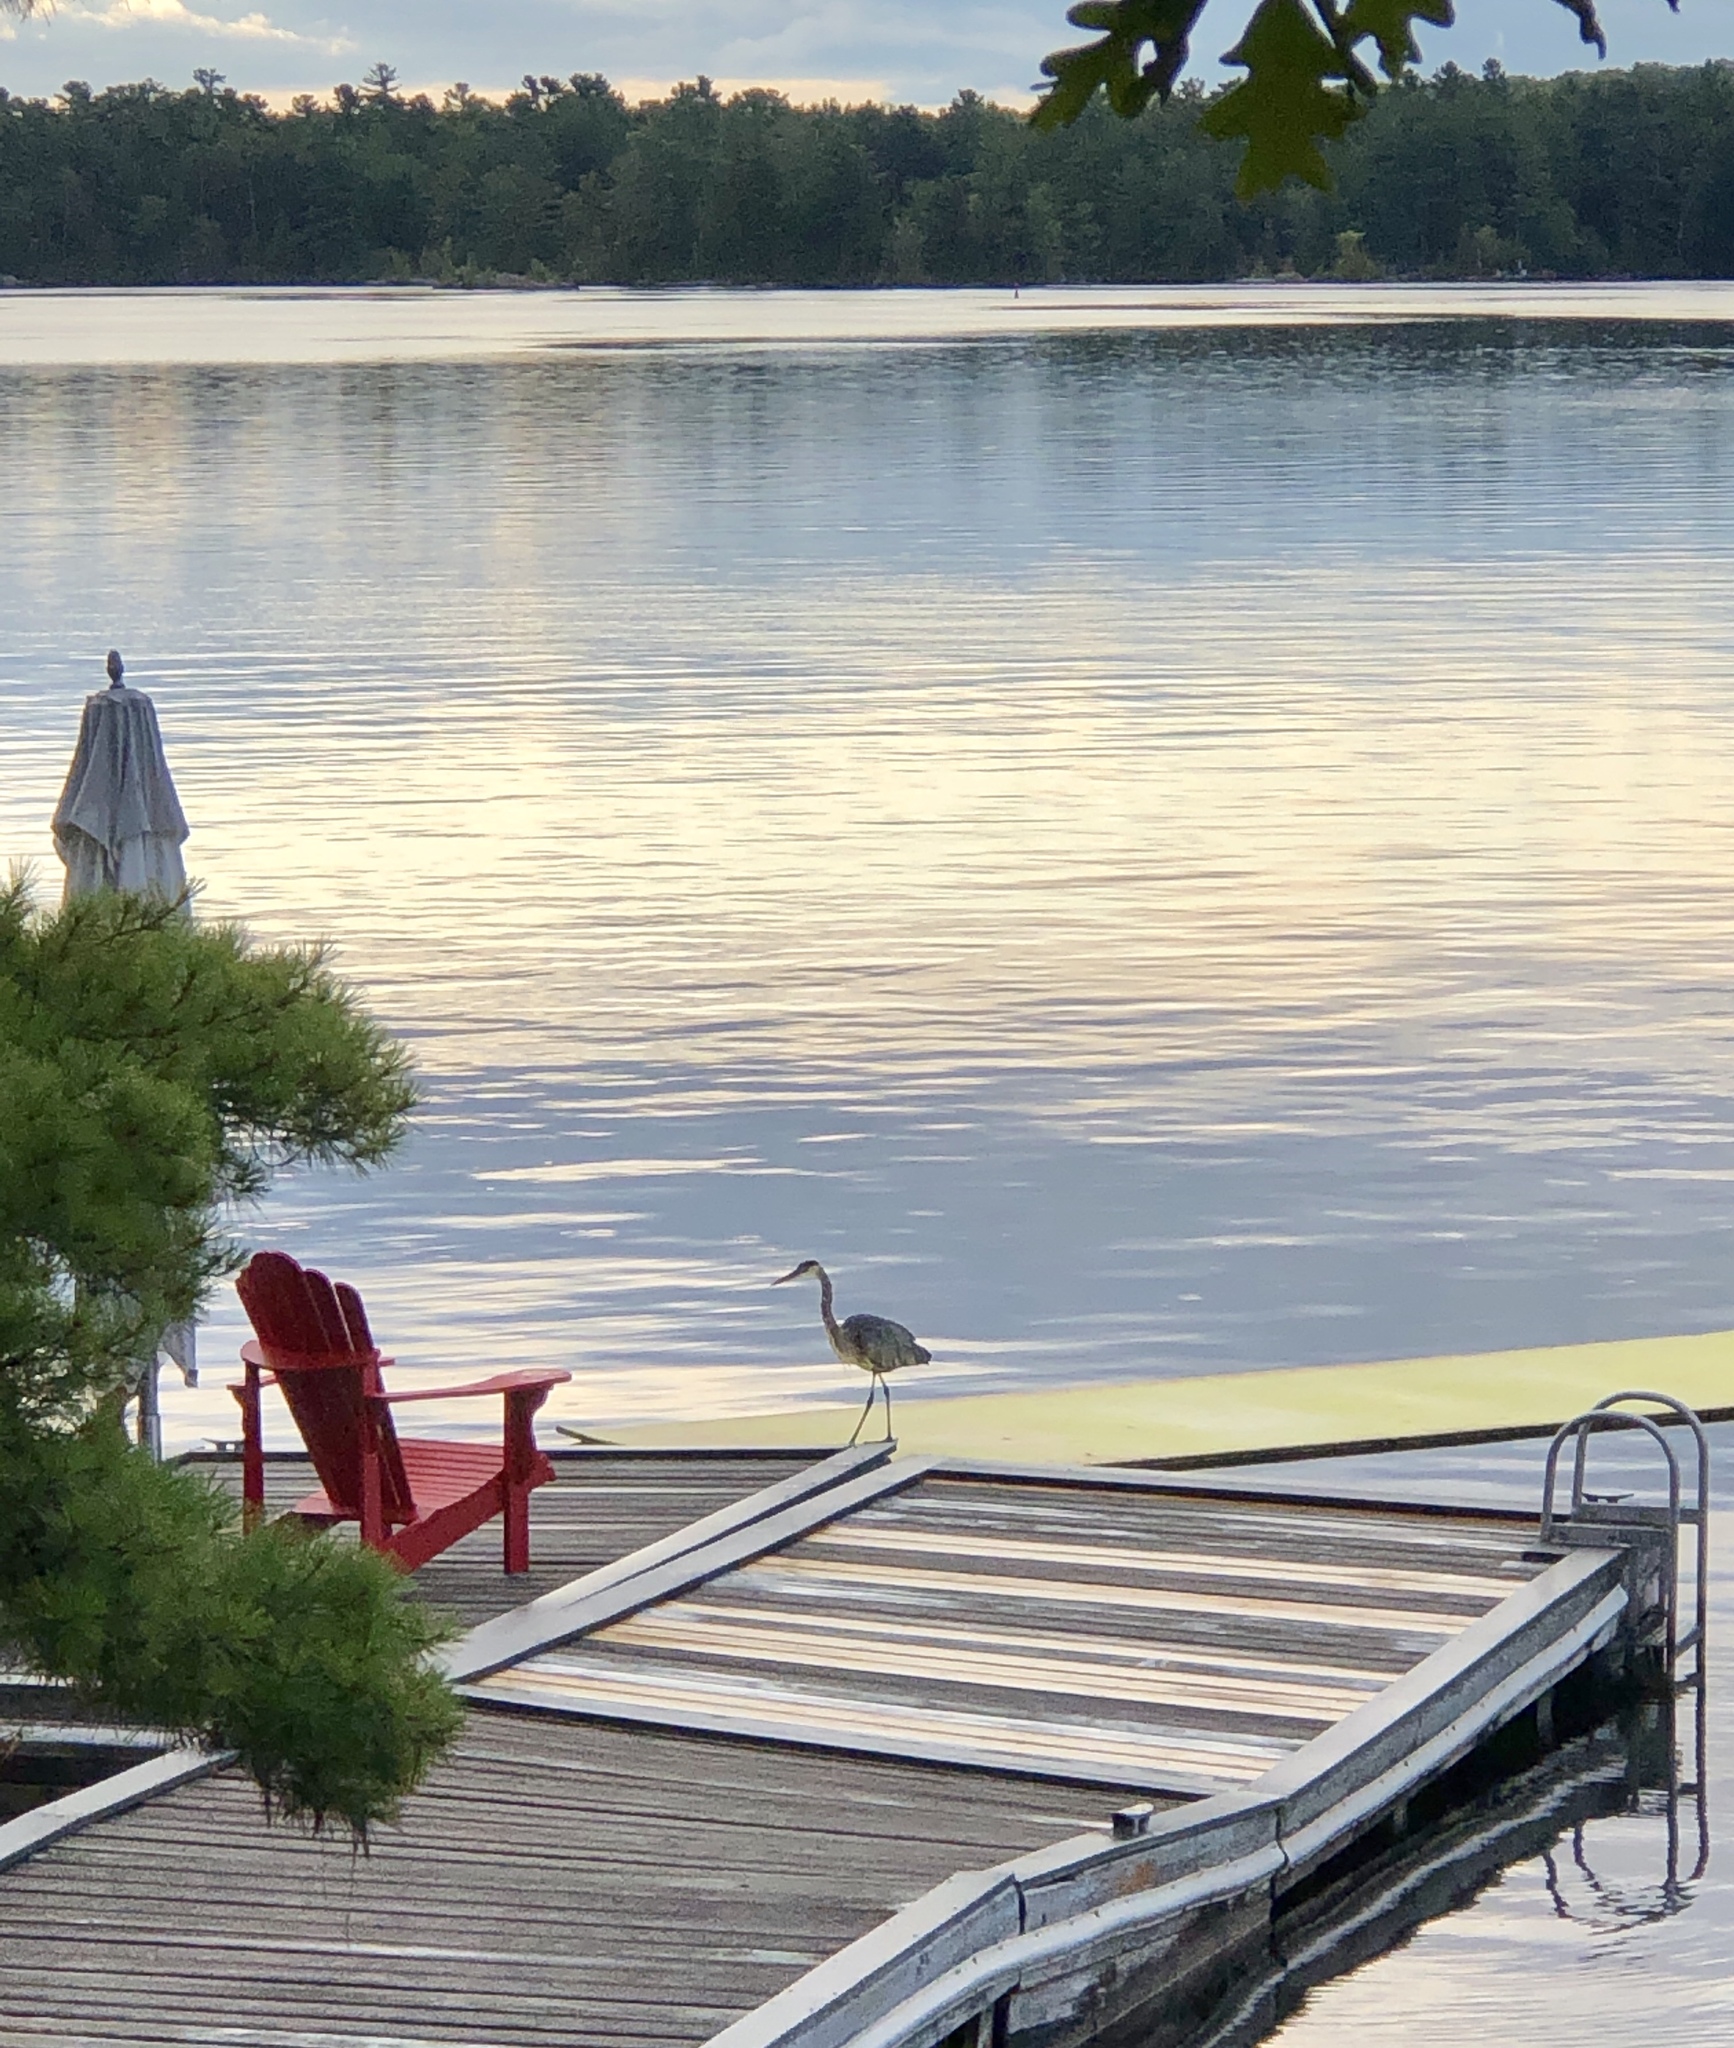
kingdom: Animalia
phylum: Chordata
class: Aves
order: Pelecaniformes
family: Ardeidae
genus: Ardea
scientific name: Ardea herodias
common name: Great blue heron
